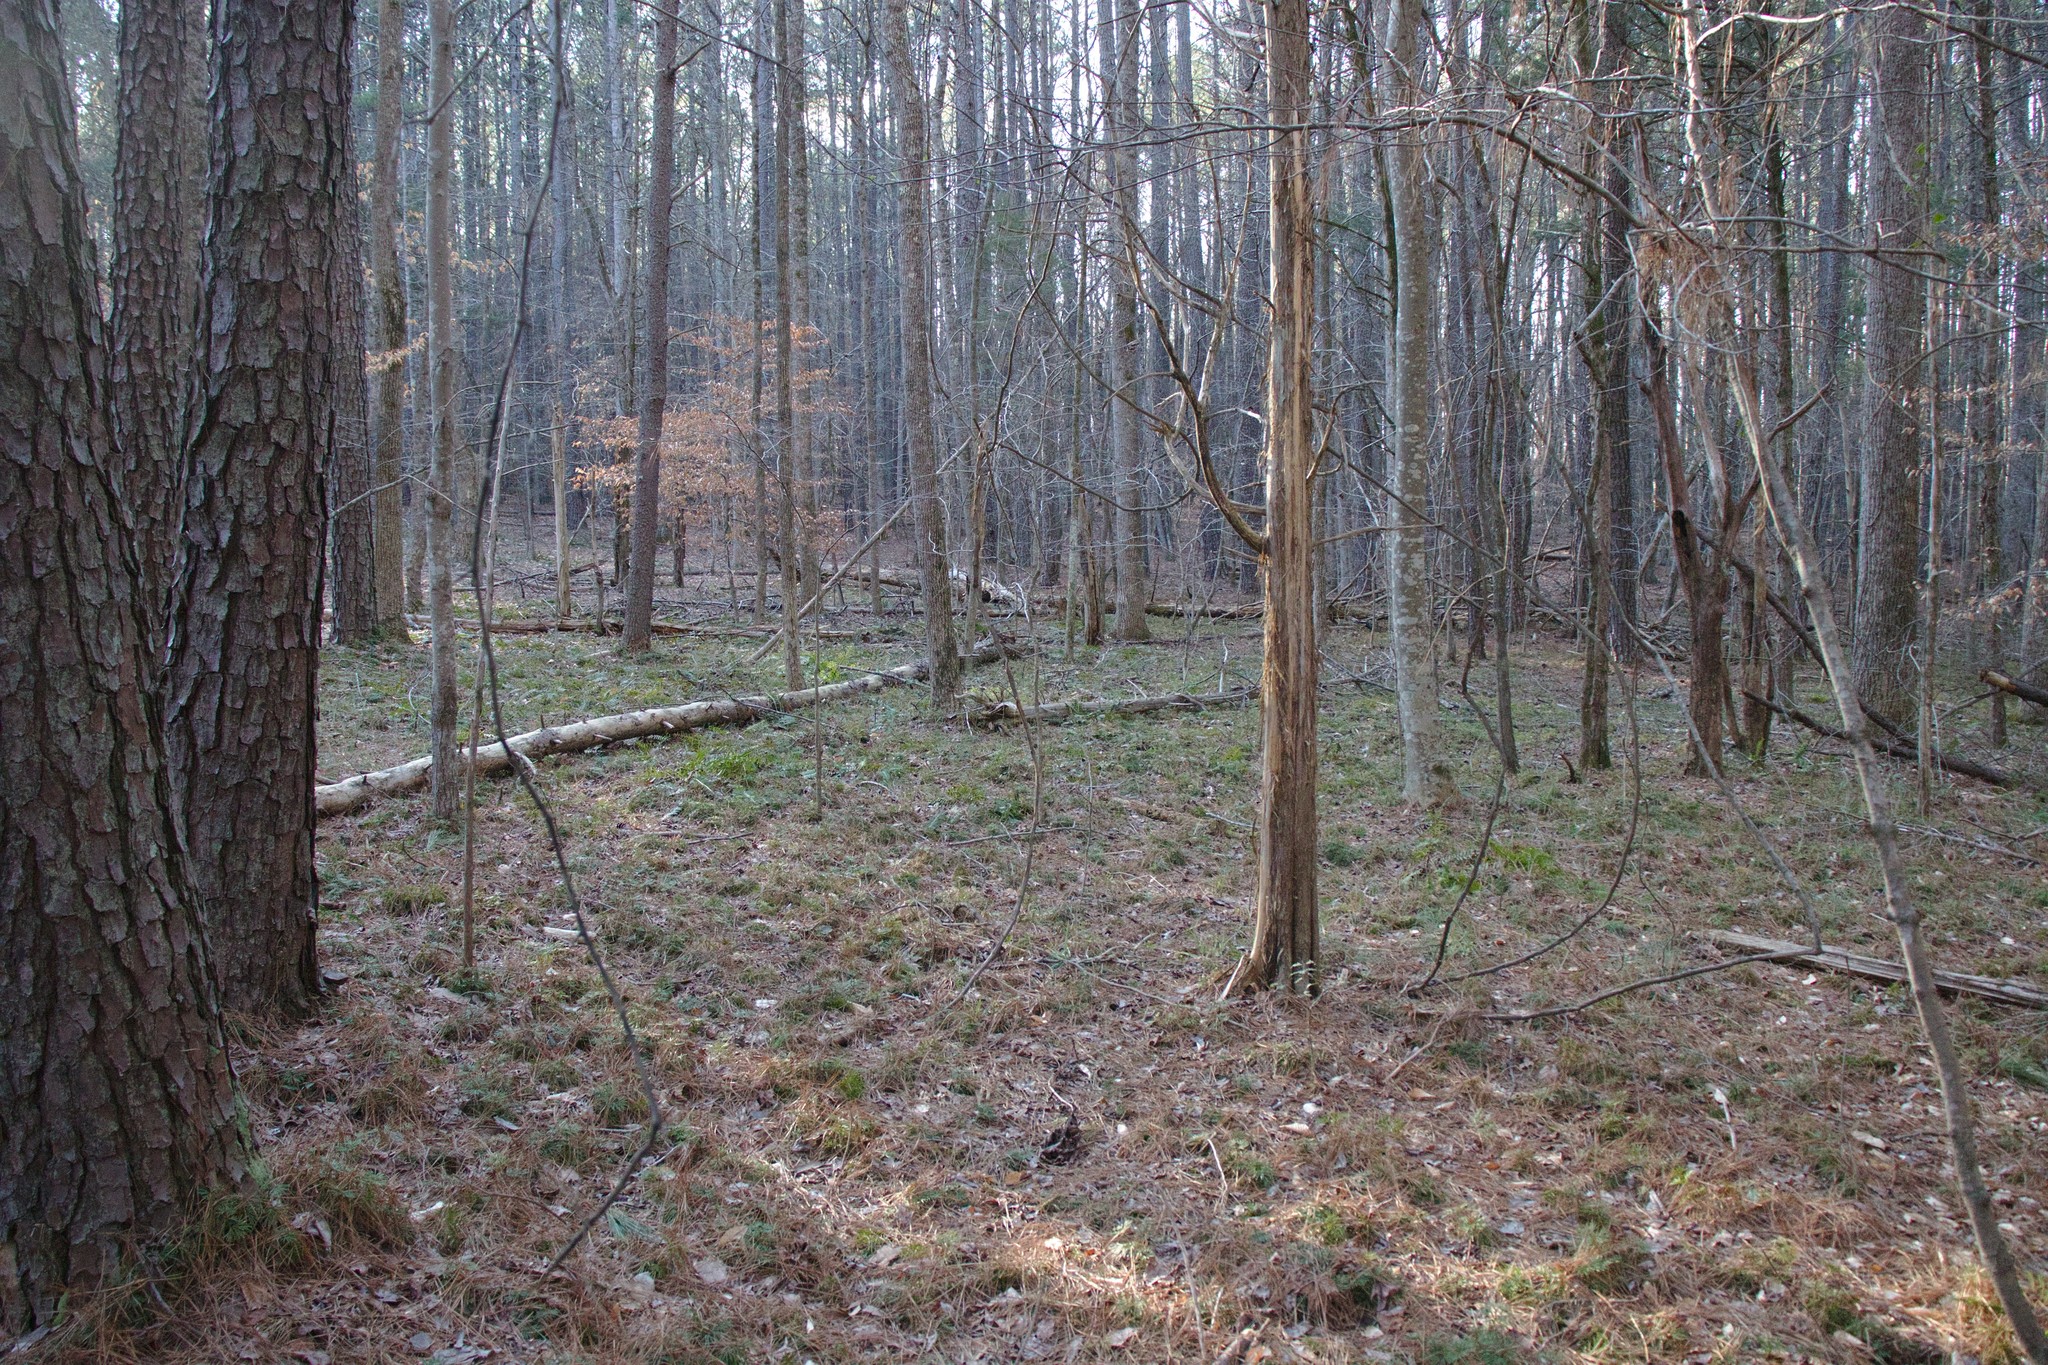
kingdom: Plantae
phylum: Tracheophyta
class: Lycopodiopsida
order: Lycopodiales
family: Lycopodiaceae
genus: Diphasiastrum
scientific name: Diphasiastrum digitatum
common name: Southern running-pine
